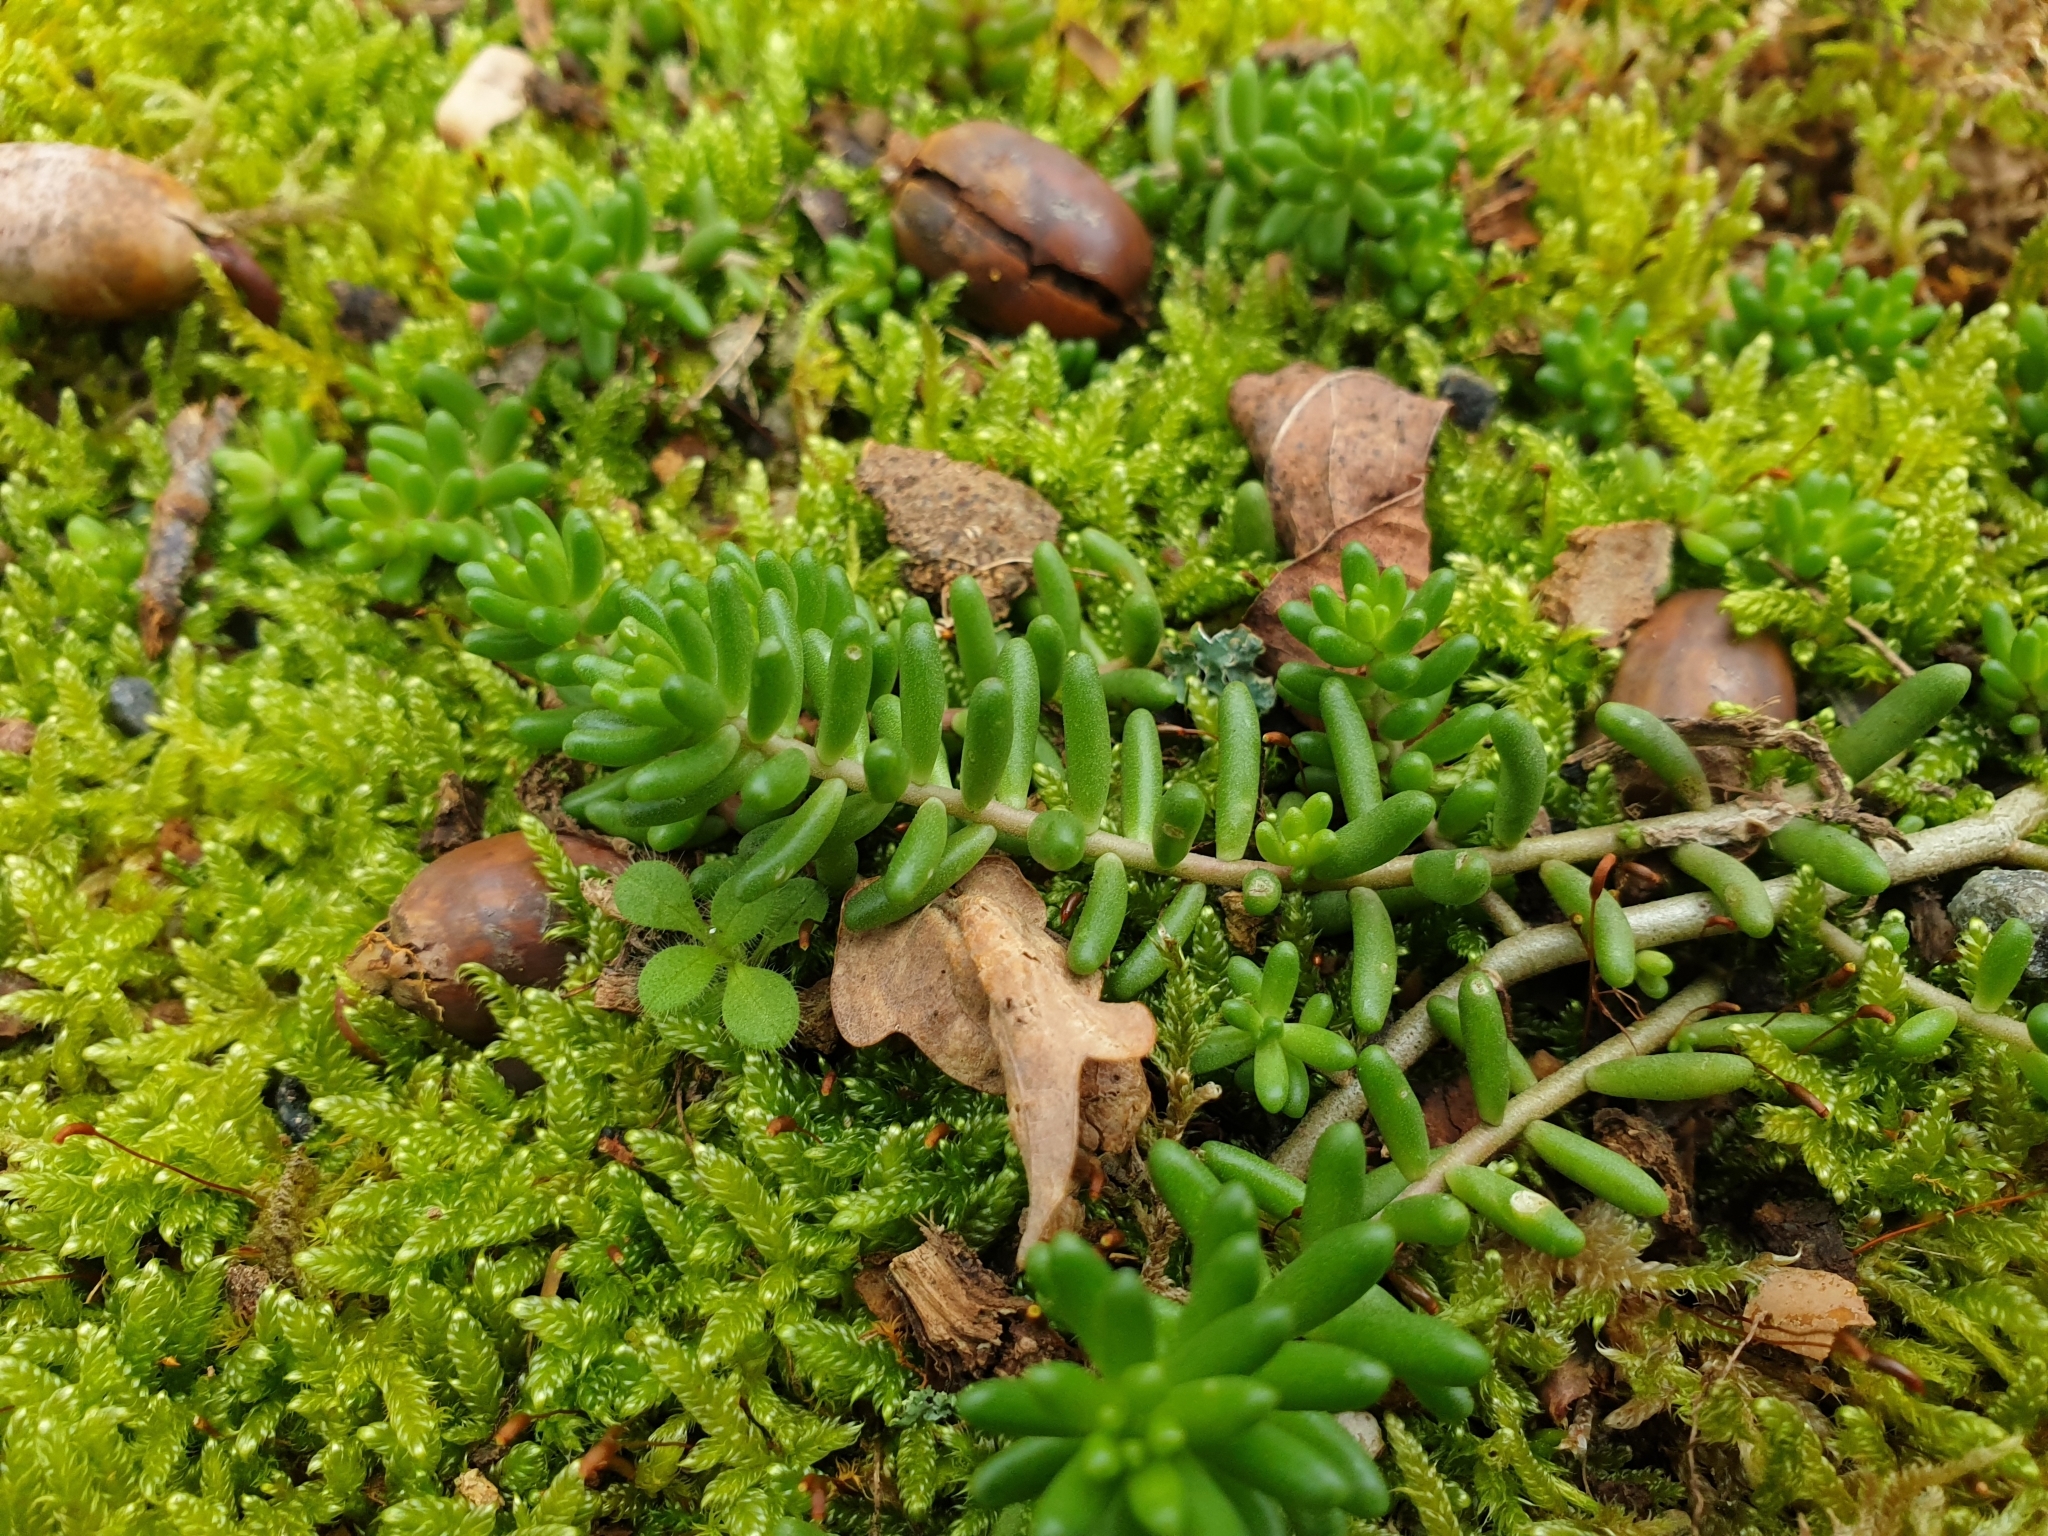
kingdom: Plantae
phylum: Tracheophyta
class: Magnoliopsida
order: Saxifragales
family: Crassulaceae
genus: Sedum
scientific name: Sedum album
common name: White stonecrop
